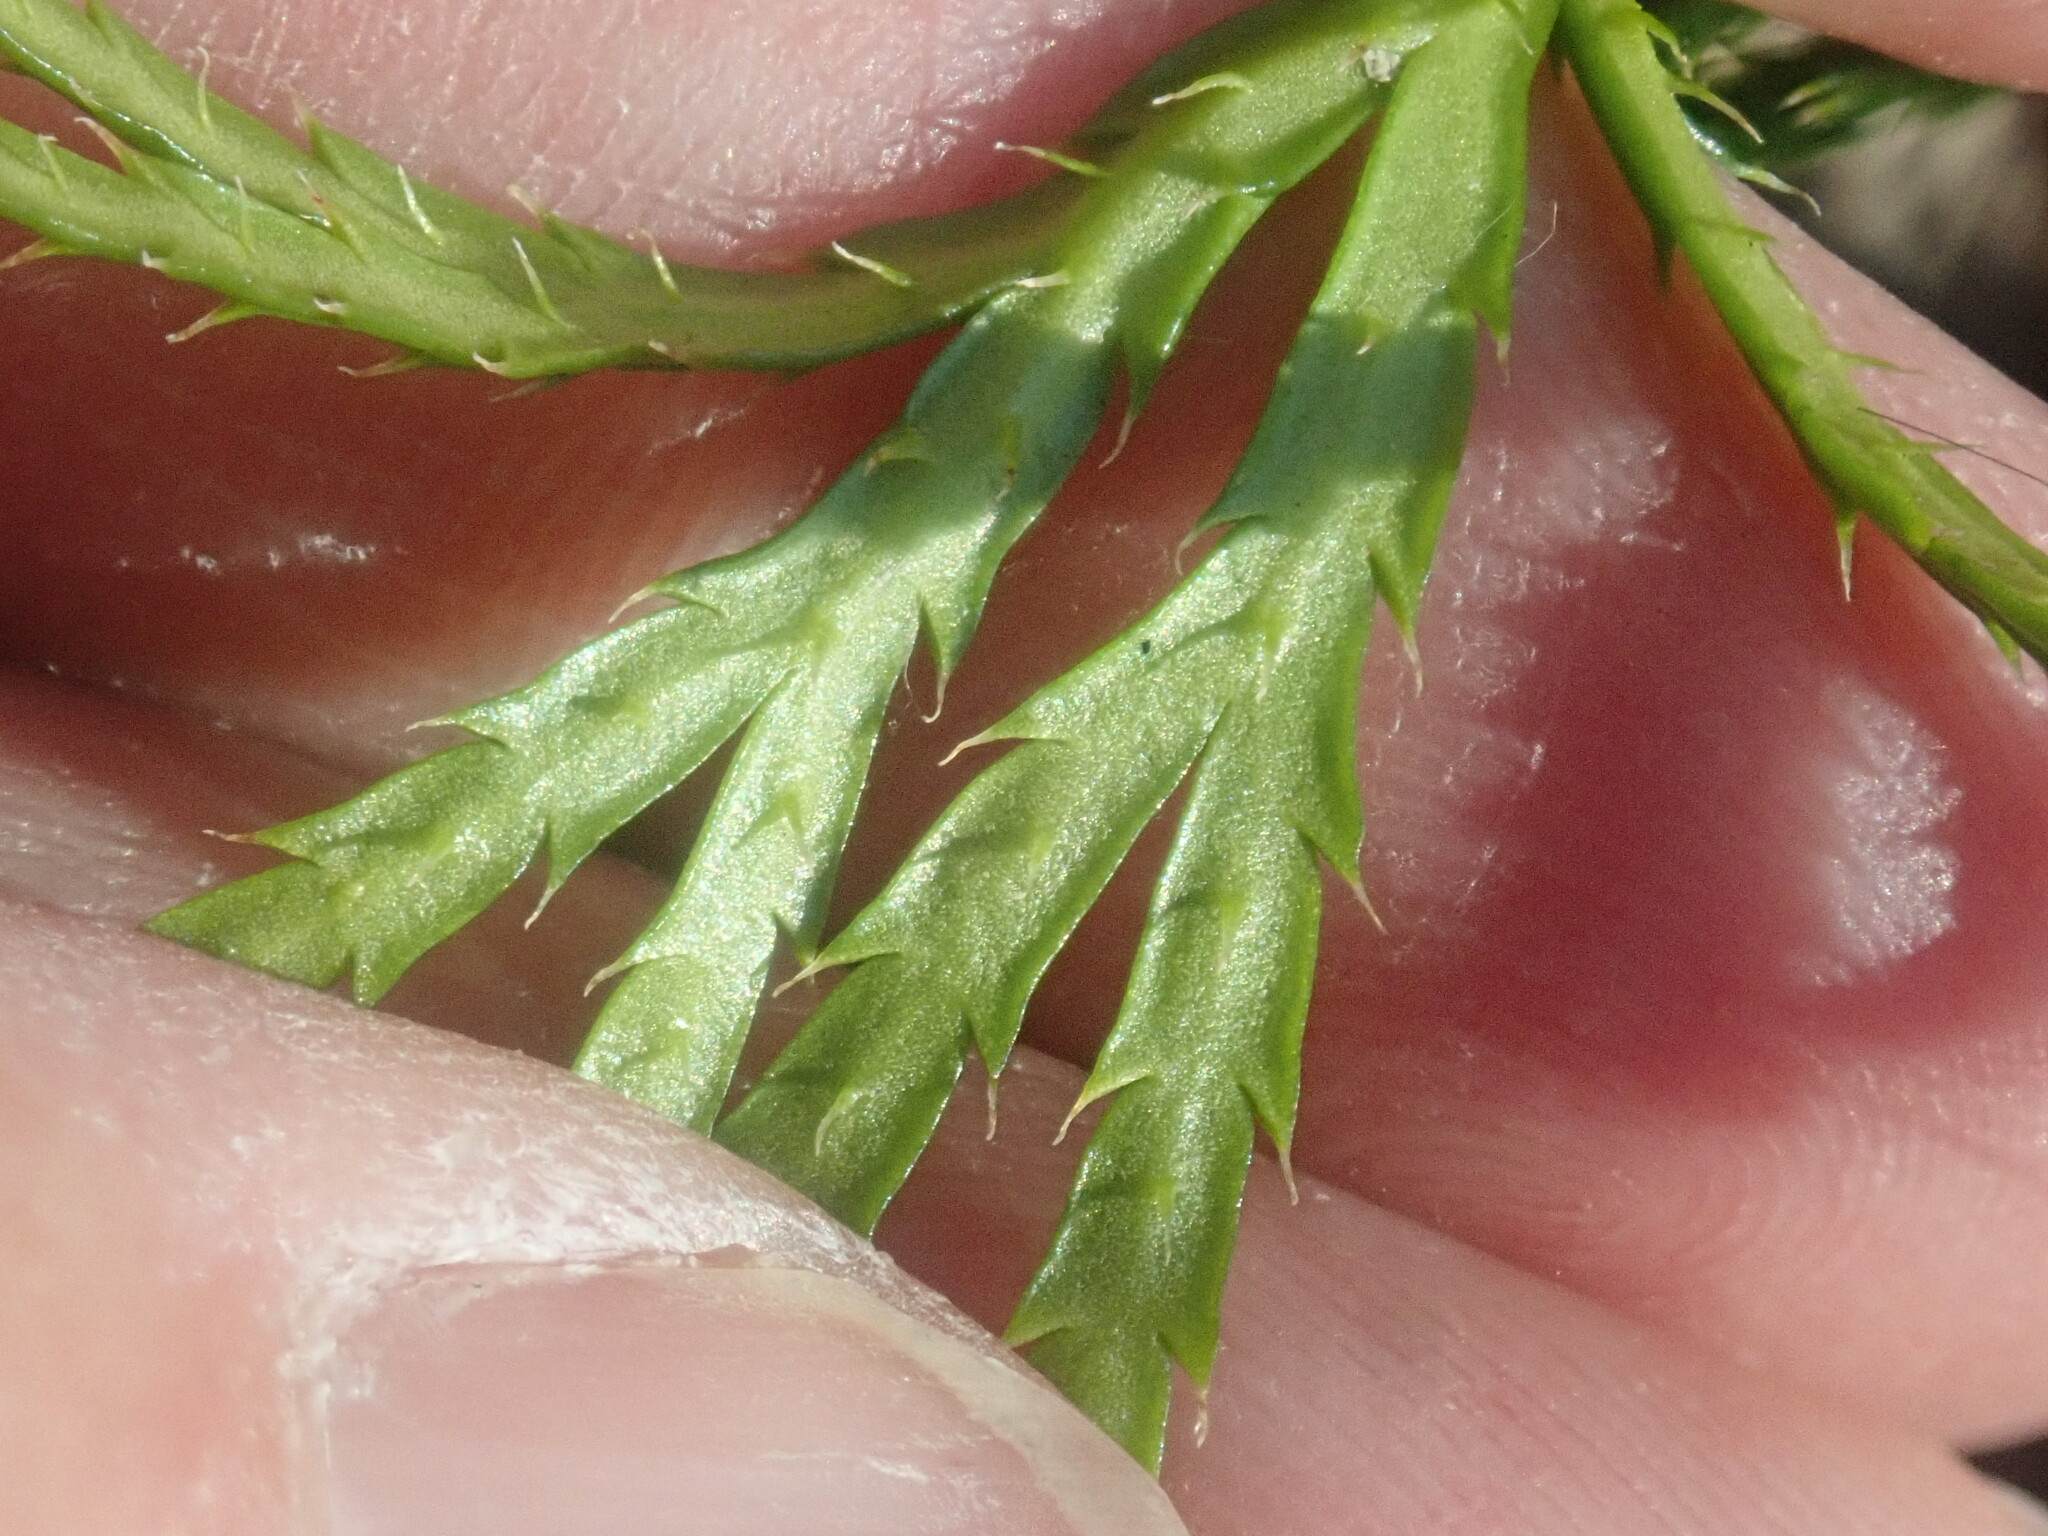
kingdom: Plantae
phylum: Tracheophyta
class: Lycopodiopsida
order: Lycopodiales
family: Lycopodiaceae
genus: Diphasiastrum
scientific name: Diphasiastrum digitatum
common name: Southern running-pine
